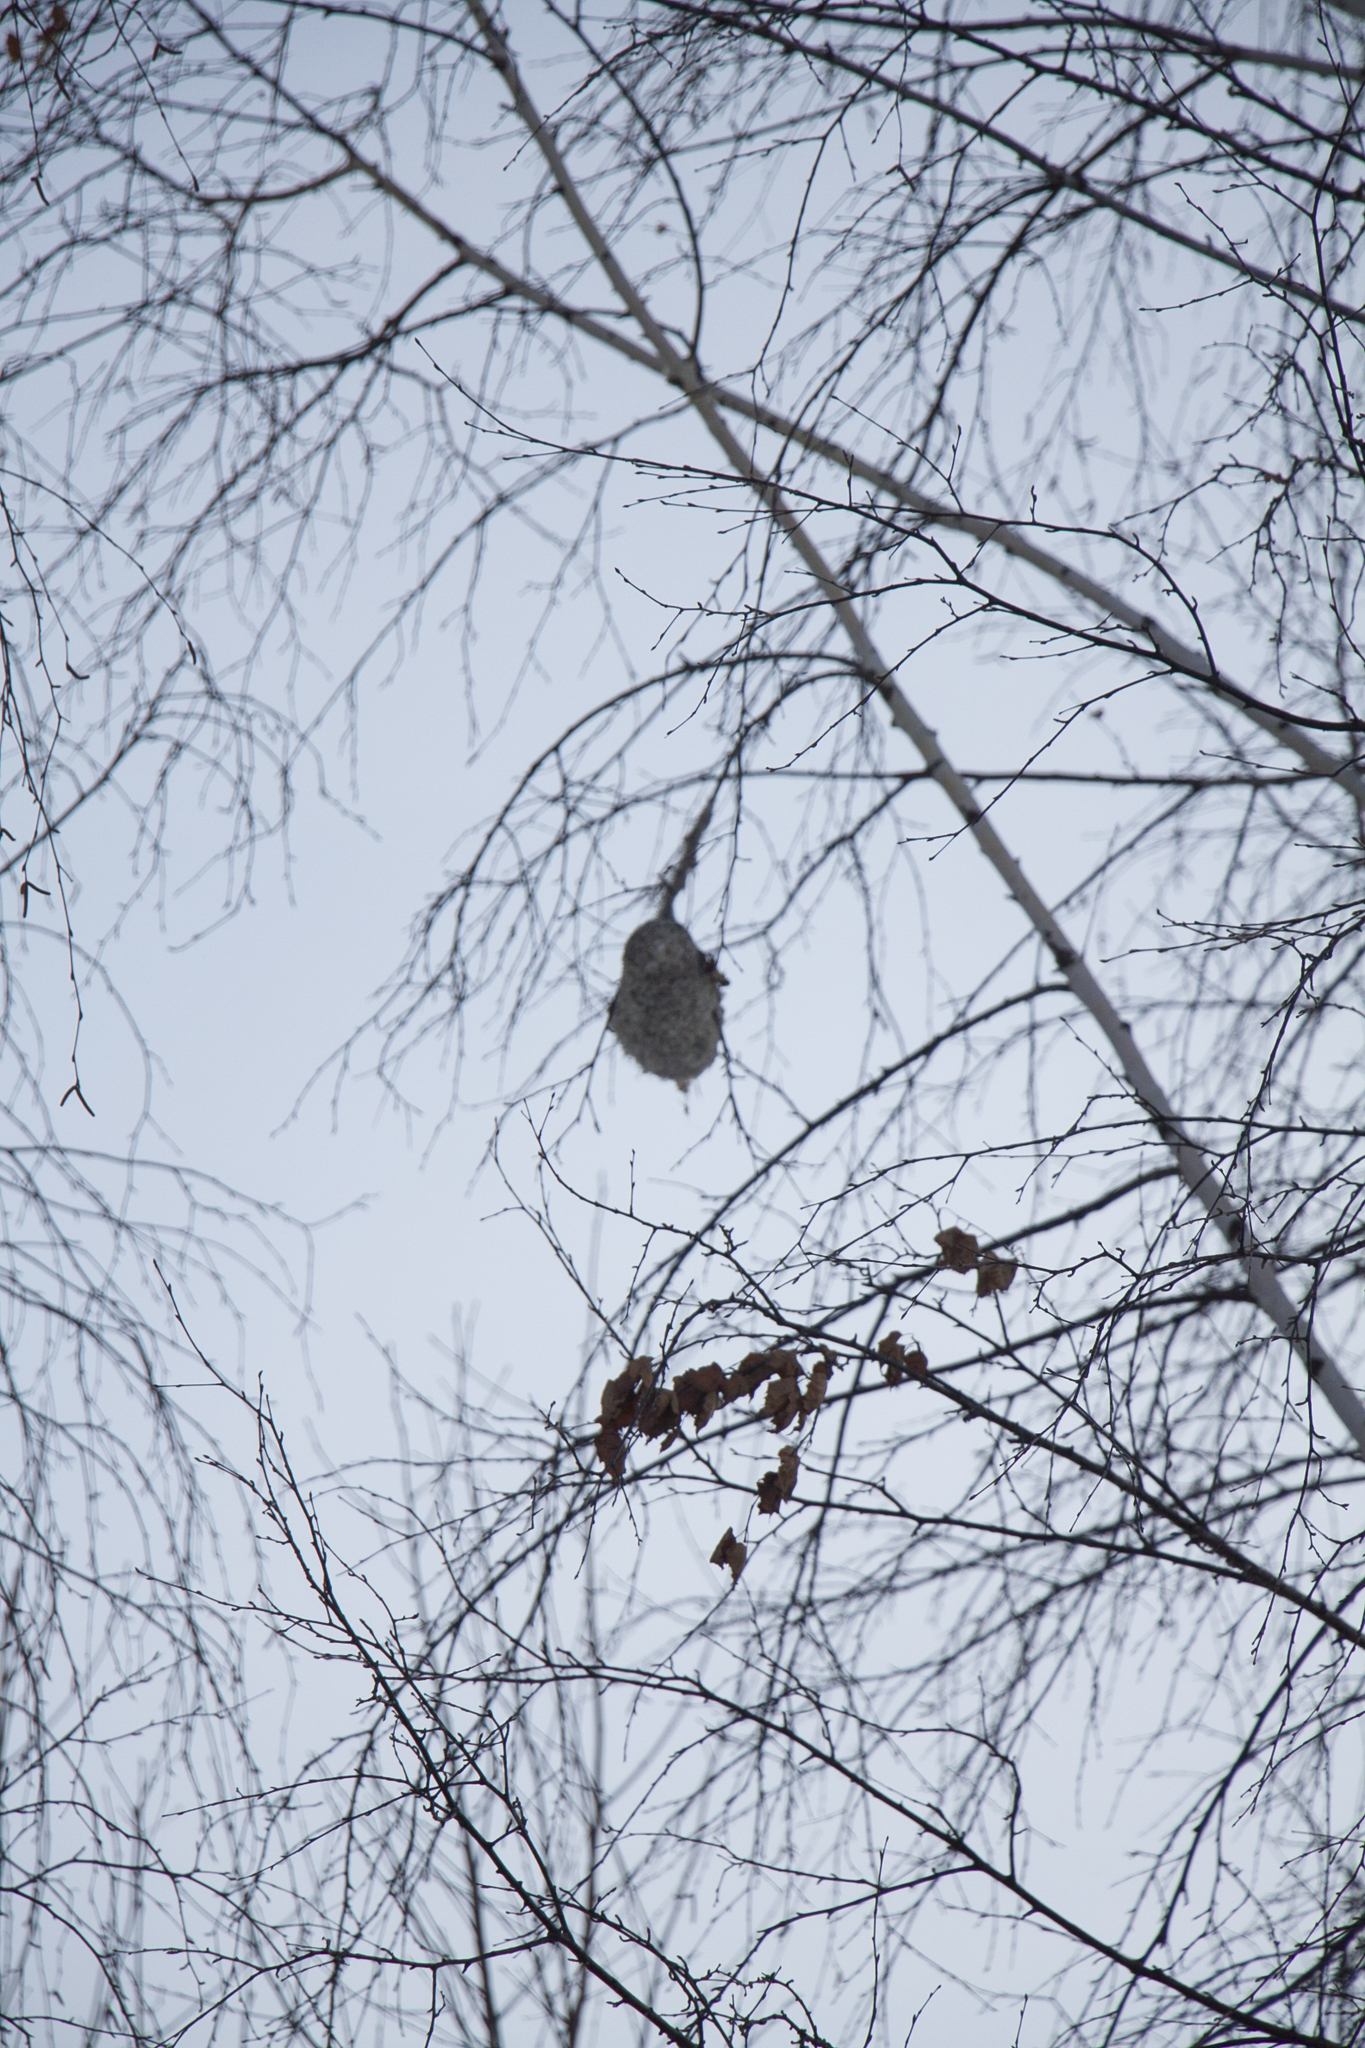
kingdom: Animalia
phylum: Chordata
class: Aves
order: Passeriformes
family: Remizidae
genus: Remiz
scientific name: Remiz pendulinus
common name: Eurasian penduline tit
